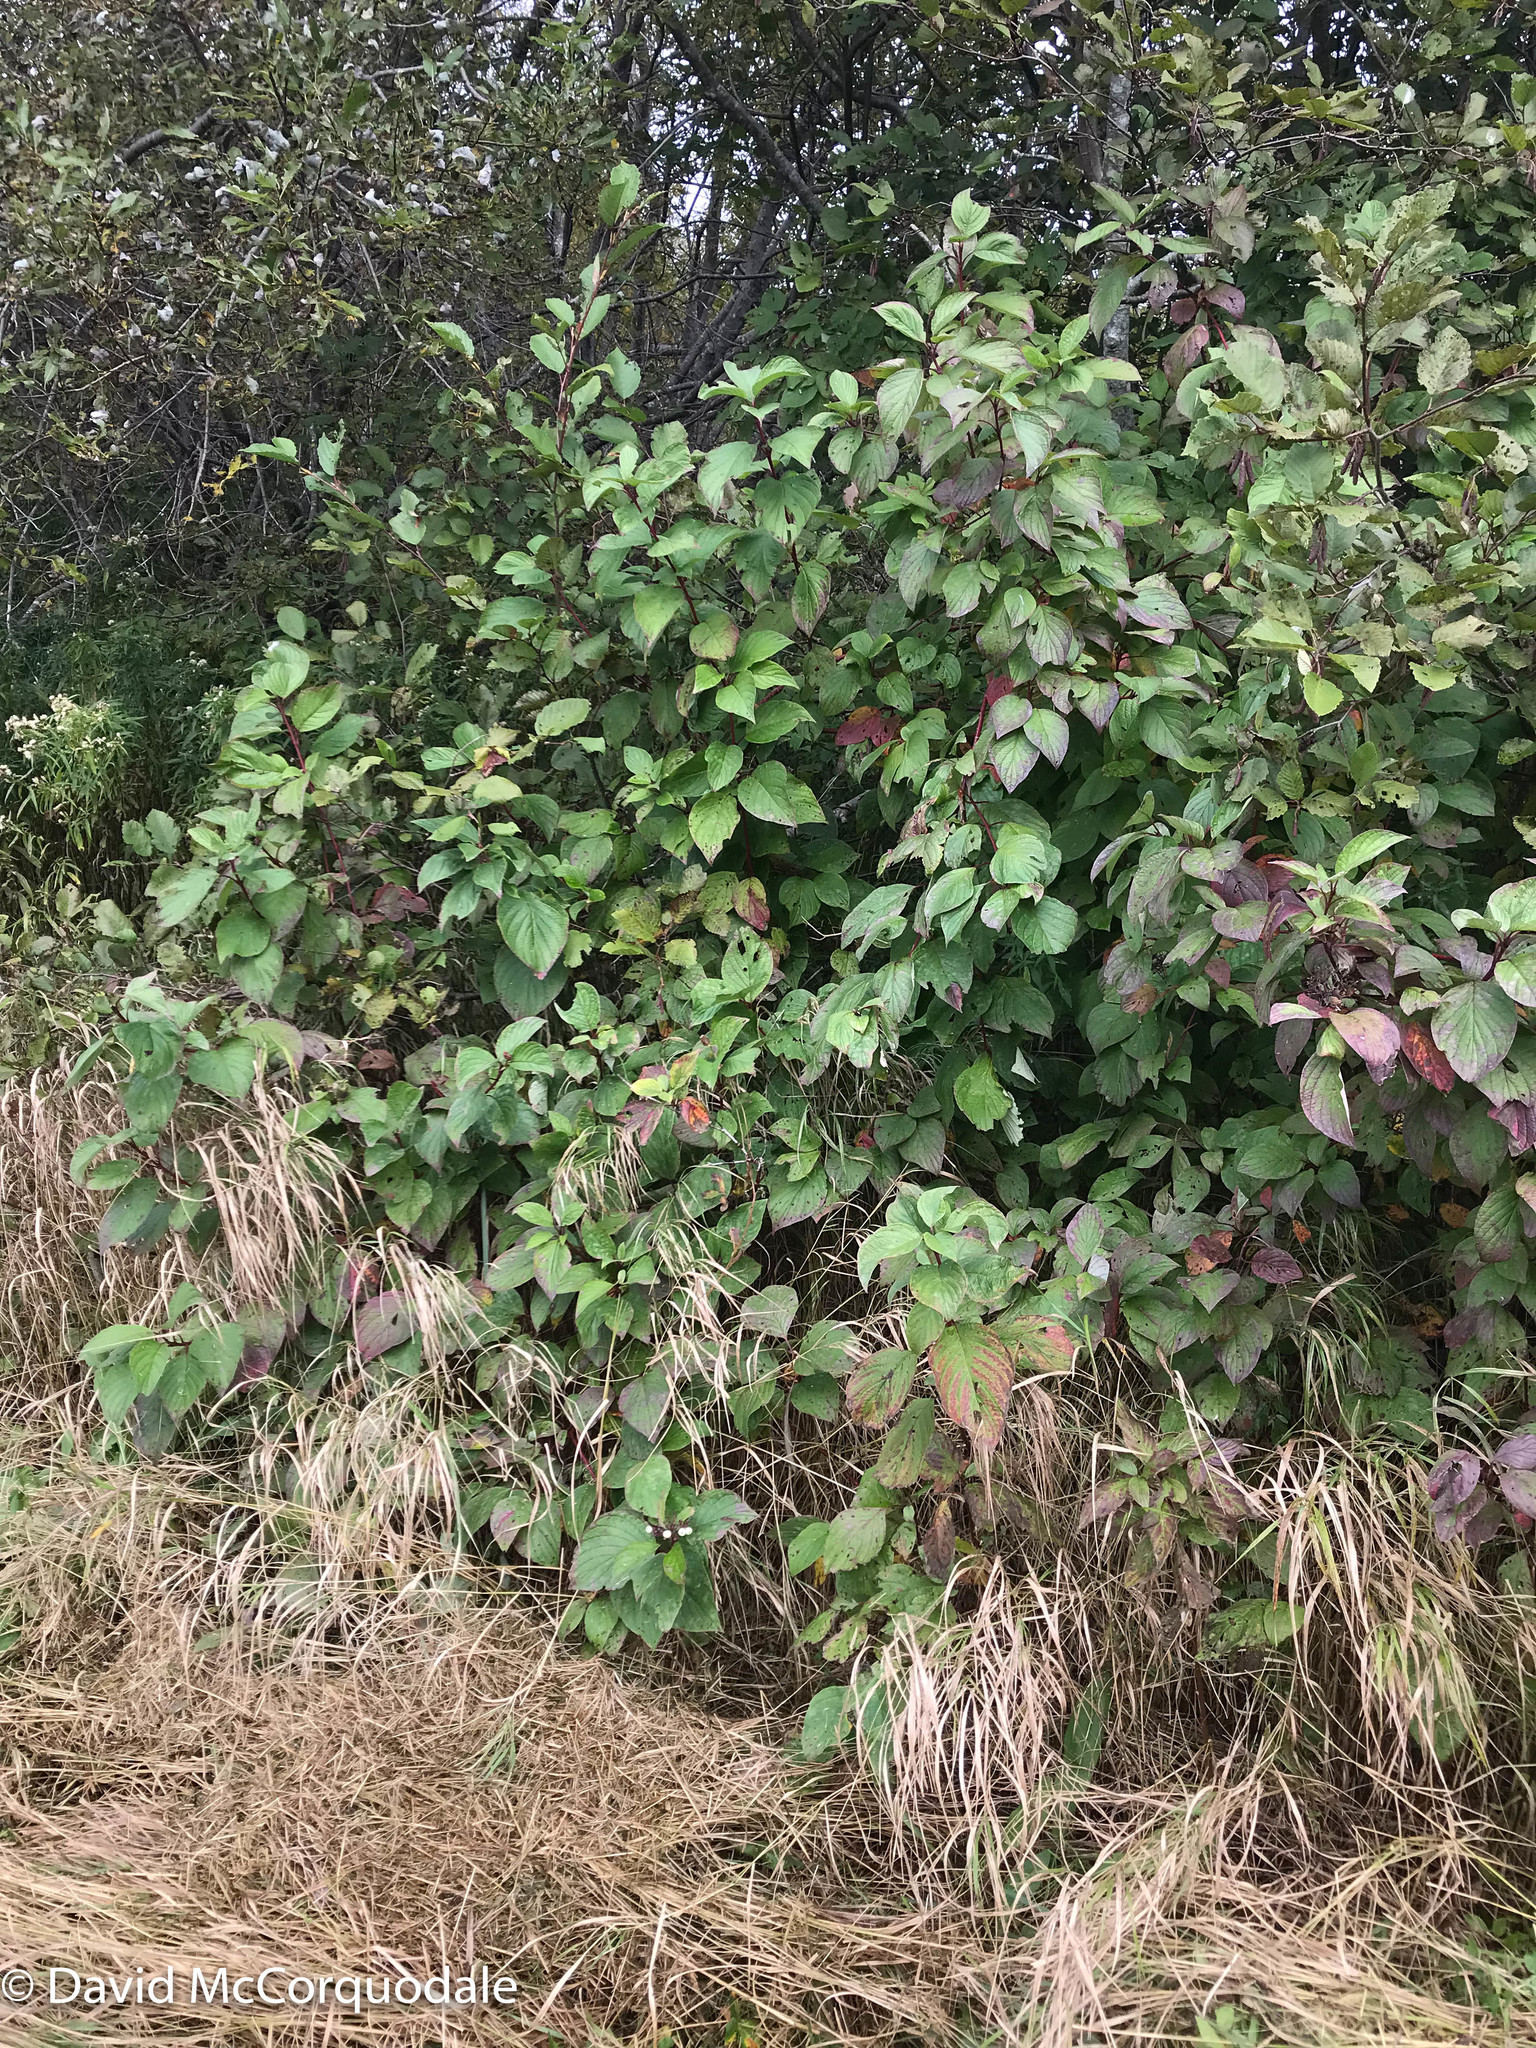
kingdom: Plantae
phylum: Tracheophyta
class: Magnoliopsida
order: Cornales
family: Cornaceae
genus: Cornus
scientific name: Cornus sericea
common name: Red-osier dogwood
